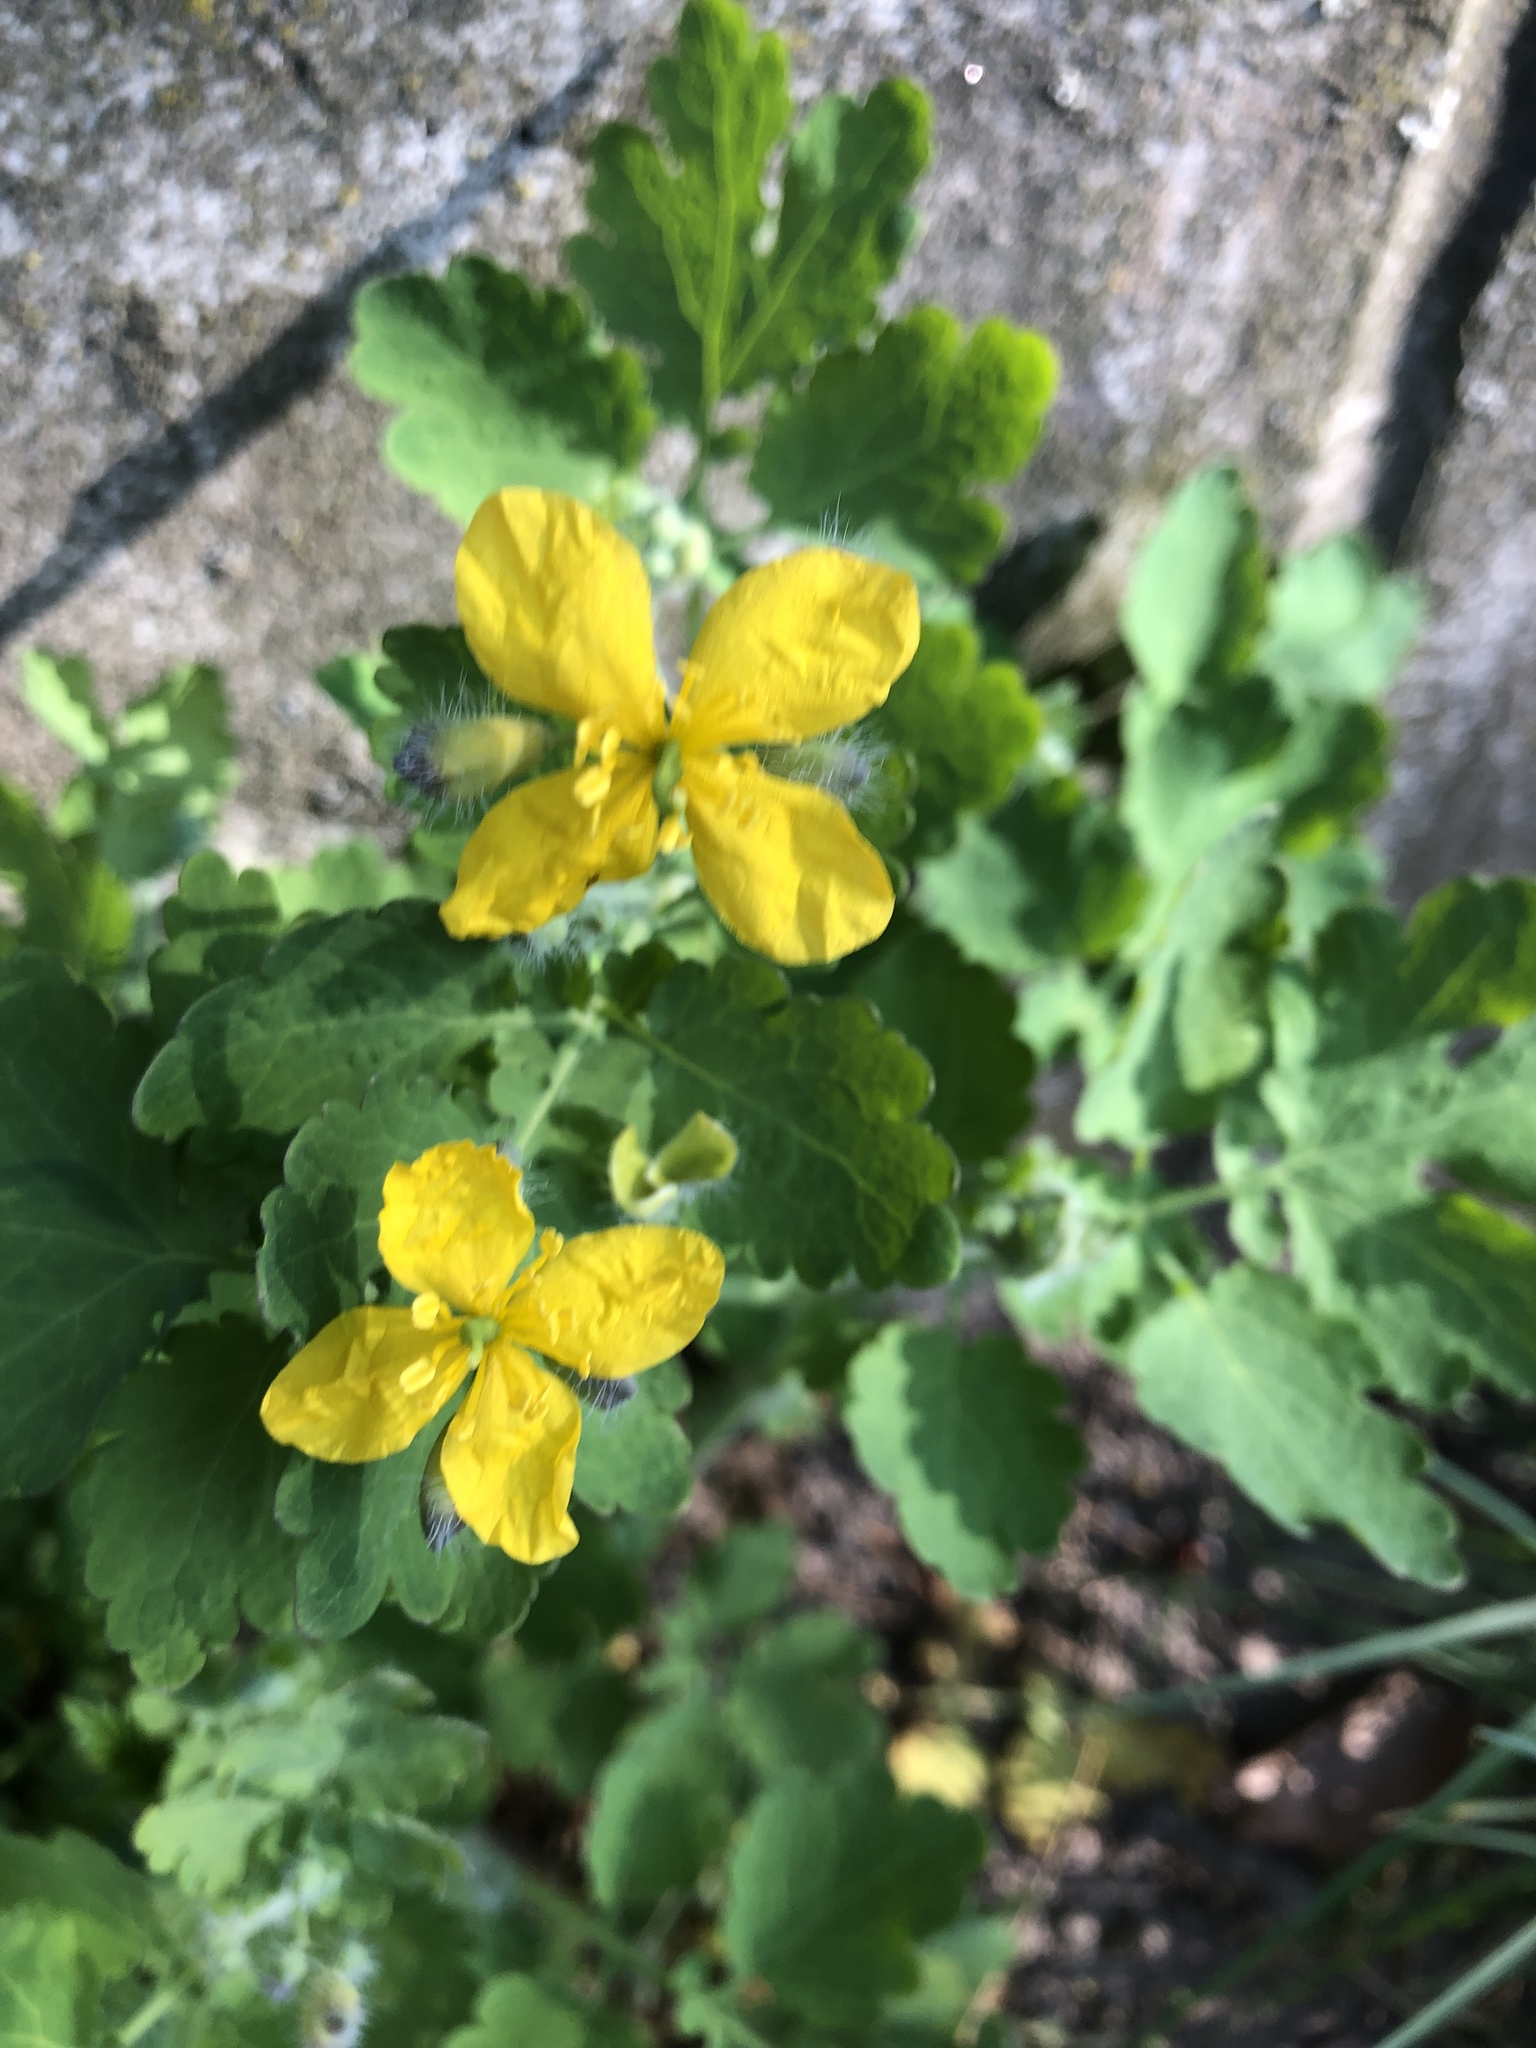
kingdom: Plantae
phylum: Tracheophyta
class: Magnoliopsida
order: Ranunculales
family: Papaveraceae
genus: Chelidonium
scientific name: Chelidonium majus
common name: Greater celandine
